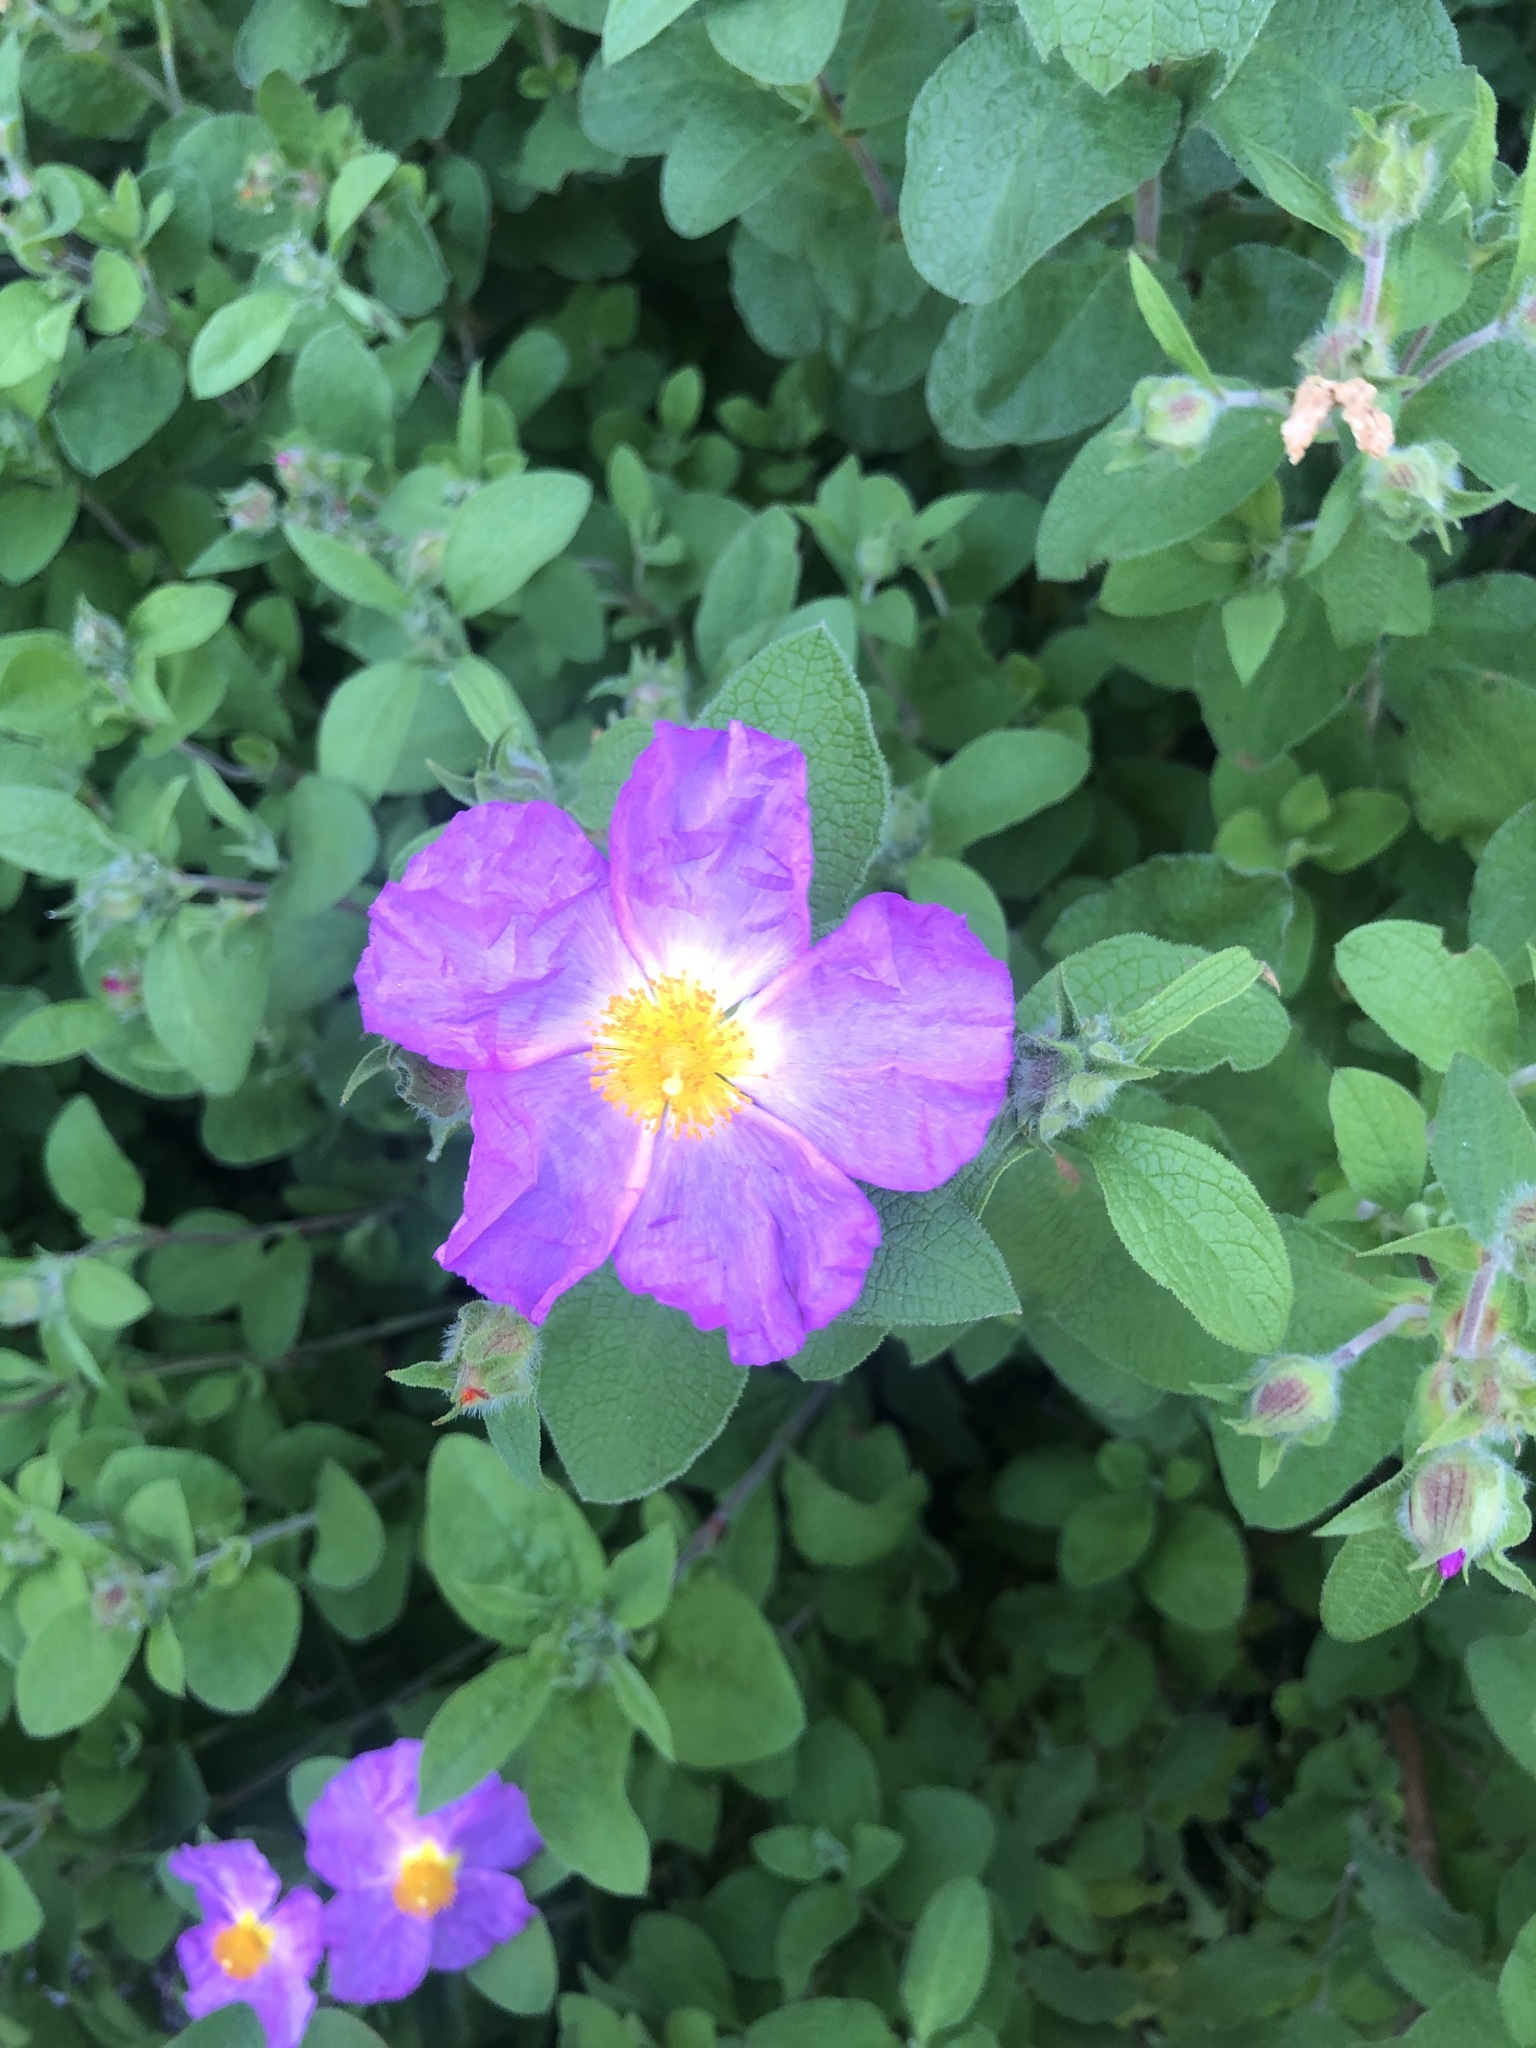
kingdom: Plantae
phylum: Tracheophyta
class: Magnoliopsida
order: Malvales
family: Cistaceae
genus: Cistus
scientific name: Cistus creticus
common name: Cretan rockrose
